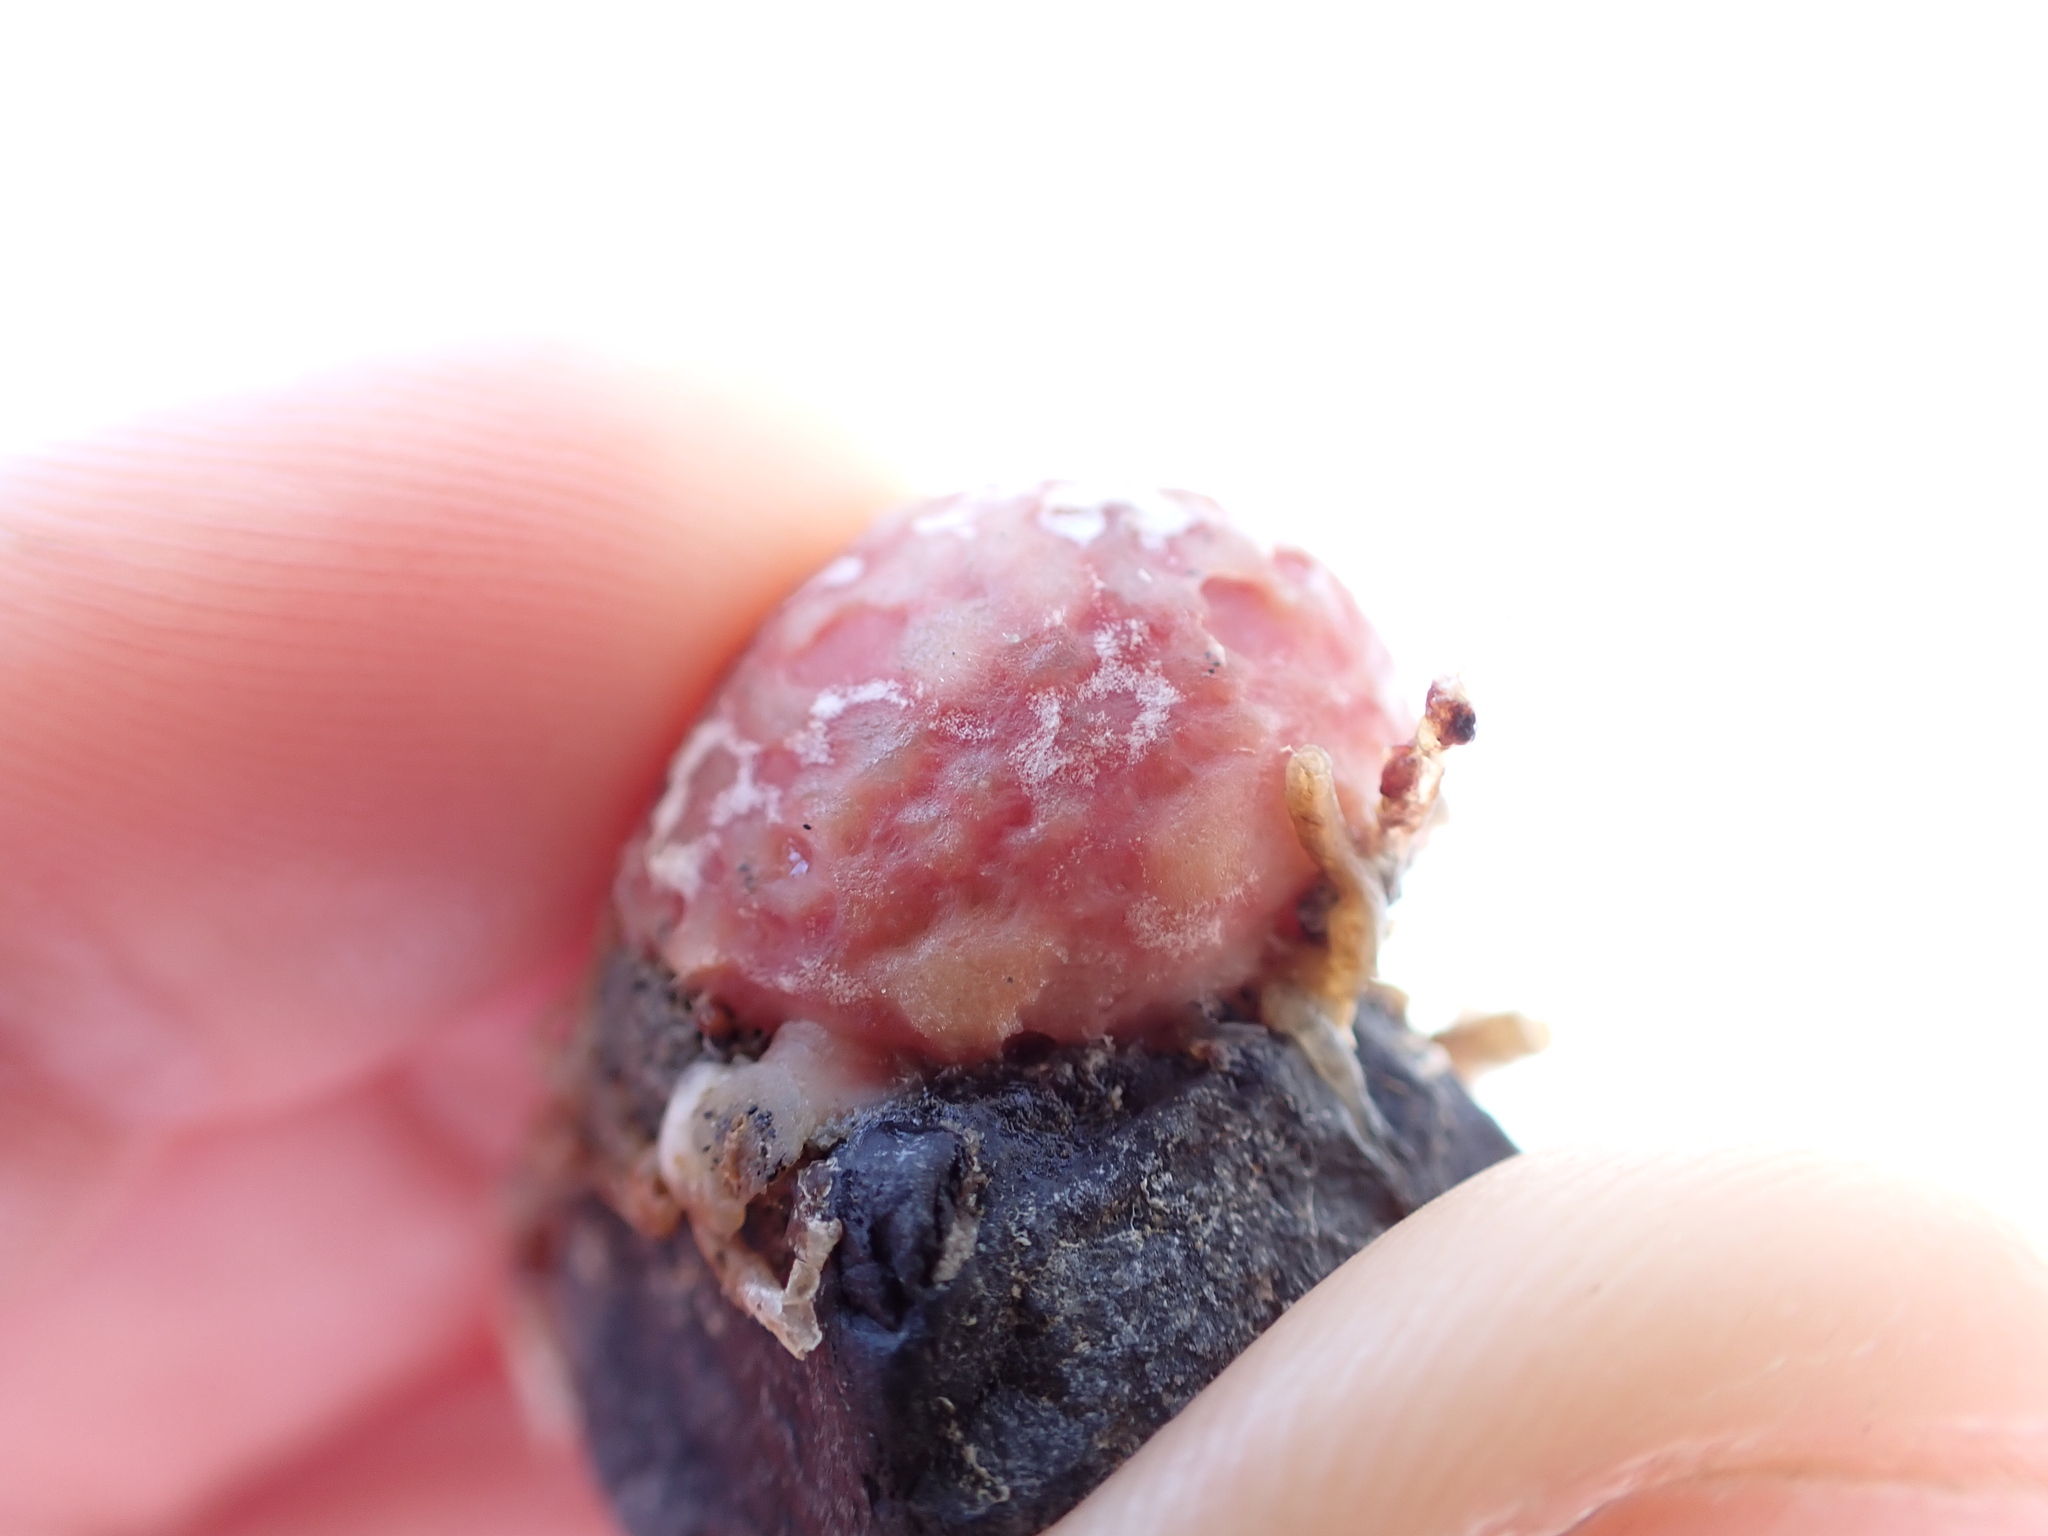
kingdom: Animalia
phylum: Porifera
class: Demospongiae
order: Tethyida
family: Tethyidae
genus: Tethya
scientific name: Tethya bergquistae
